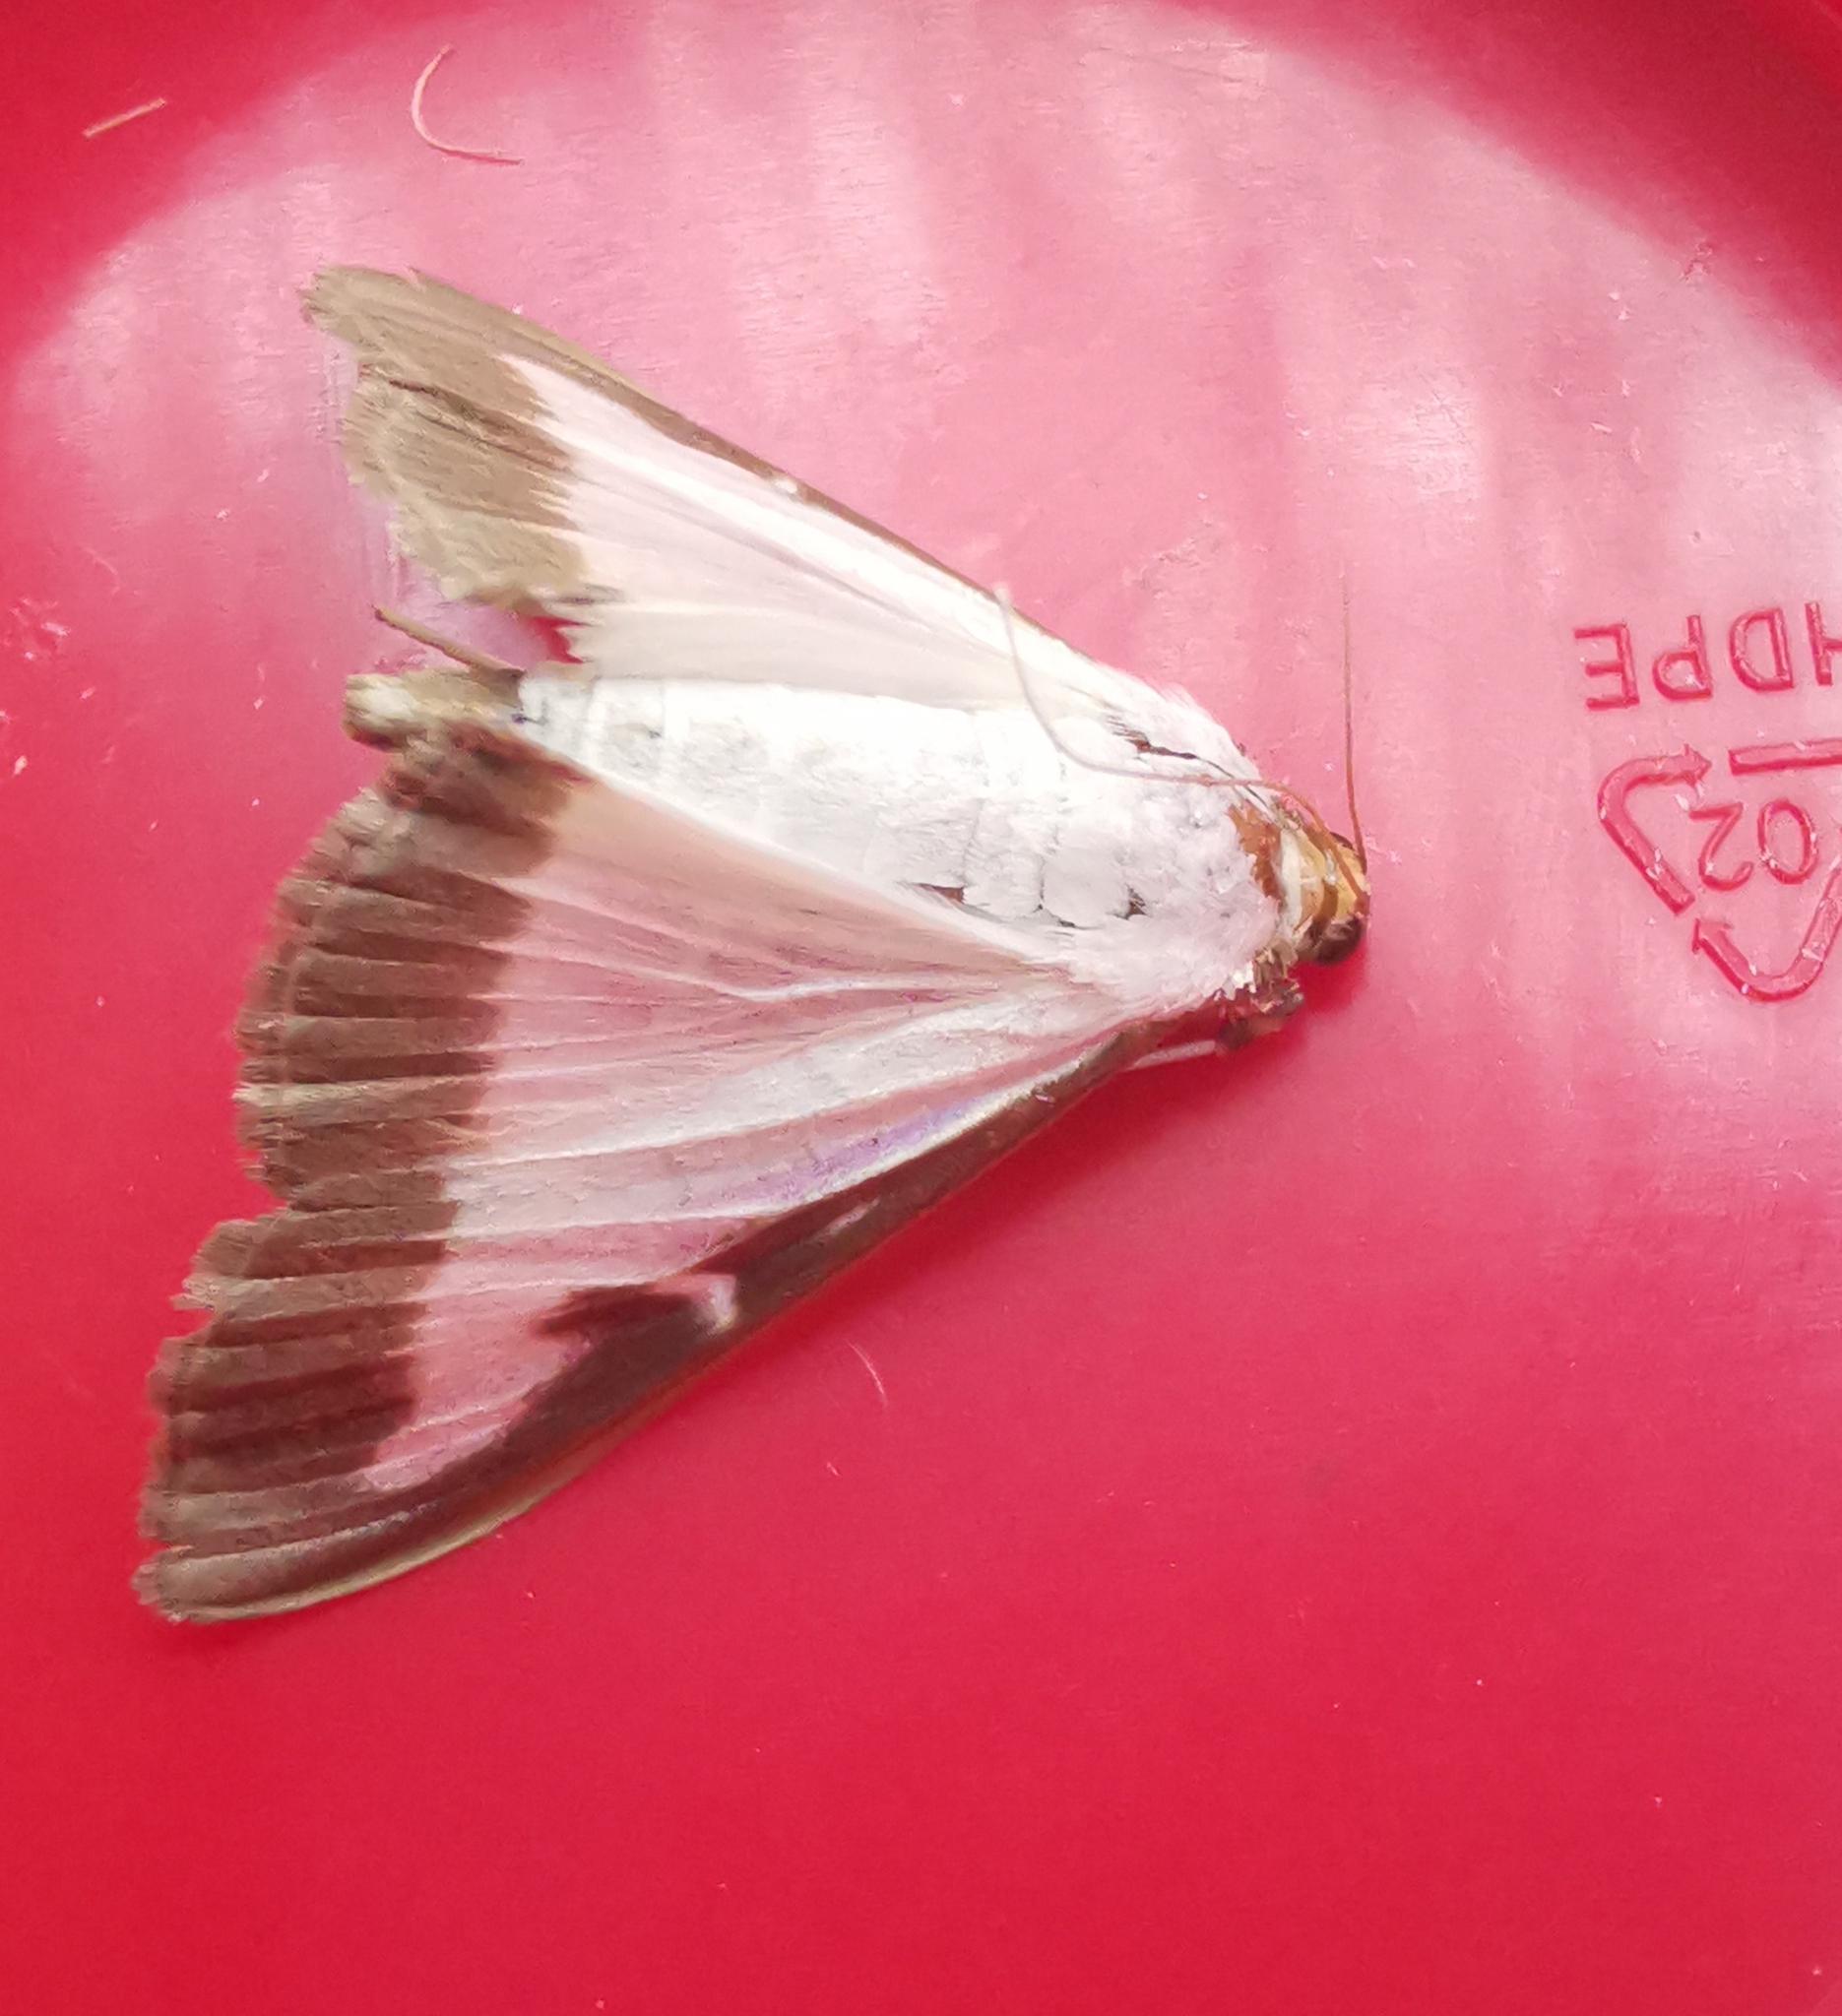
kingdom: Animalia
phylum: Arthropoda
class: Insecta
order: Lepidoptera
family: Crambidae
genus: Cydalima
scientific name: Cydalima perspectalis
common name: Box tree moth
